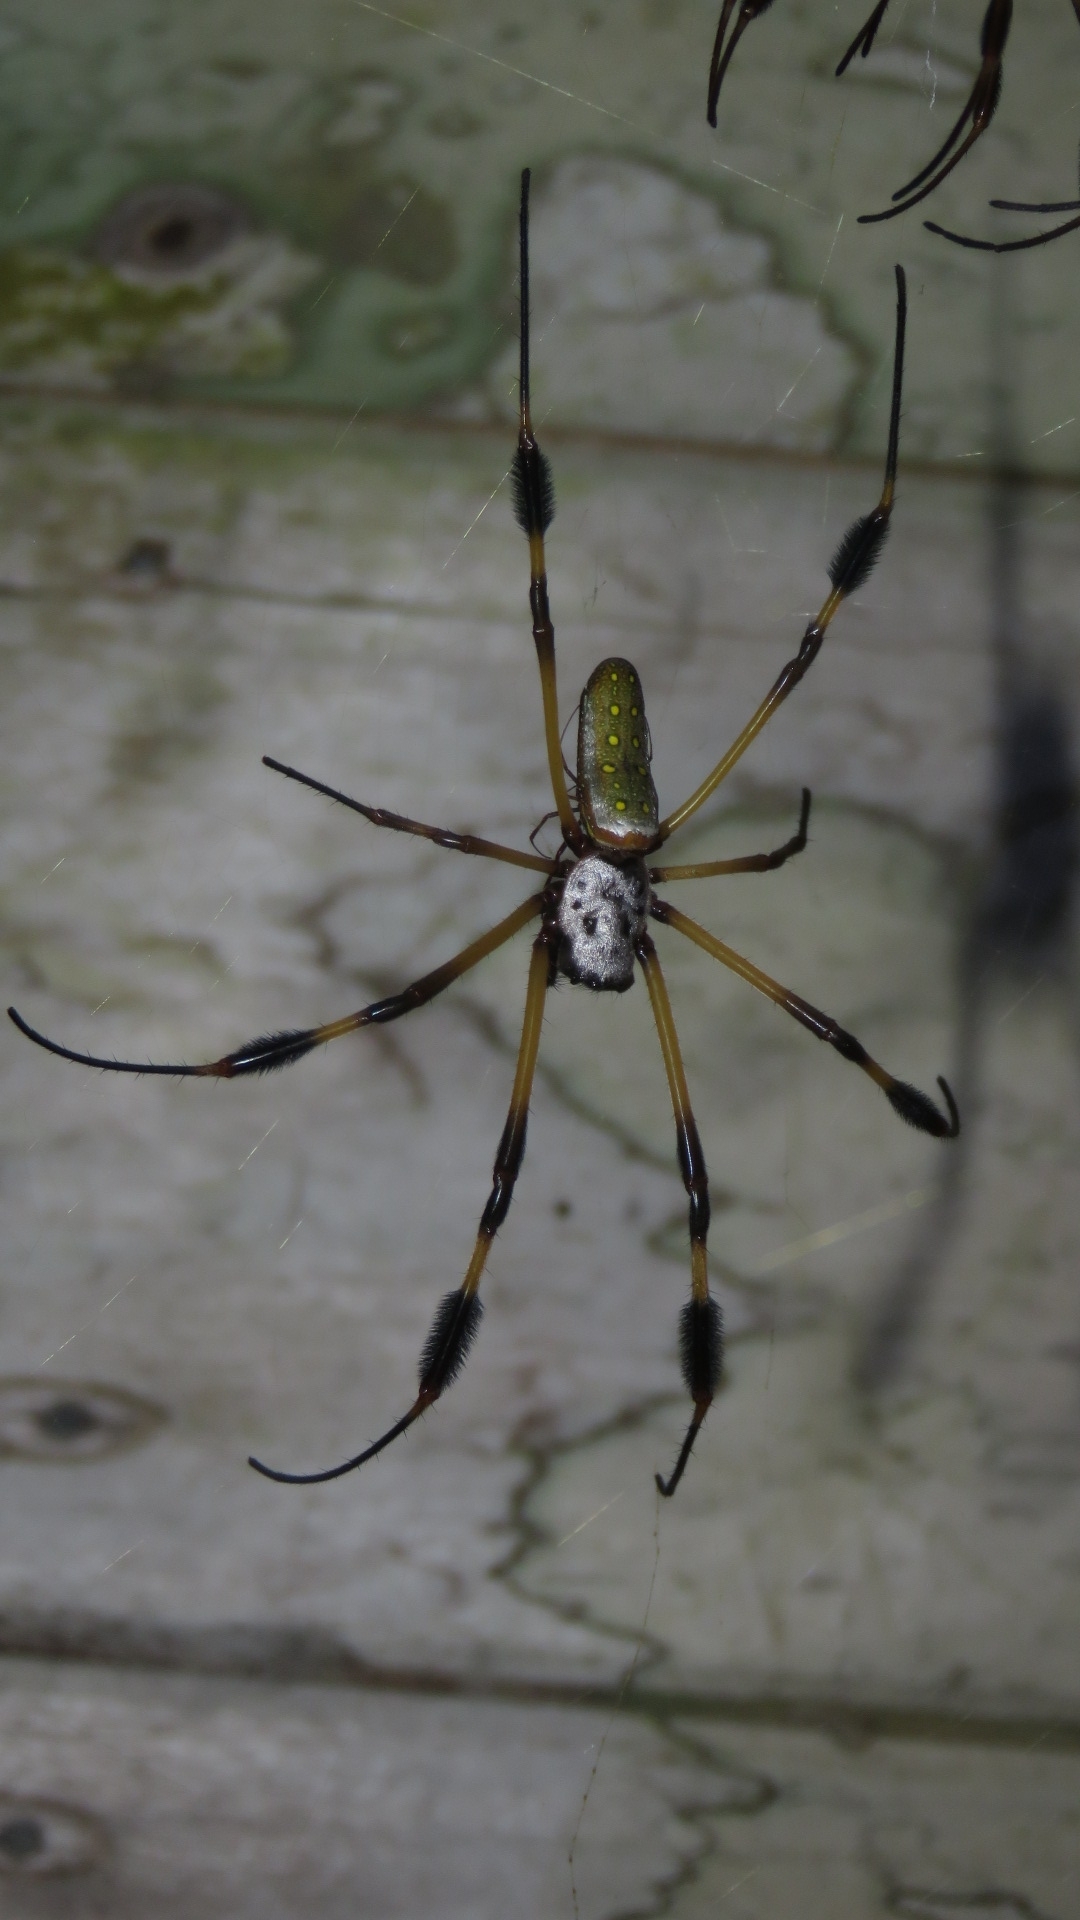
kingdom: Animalia
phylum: Arthropoda
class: Arachnida
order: Araneae
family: Araneidae
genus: Trichonephila
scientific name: Trichonephila clavipes
